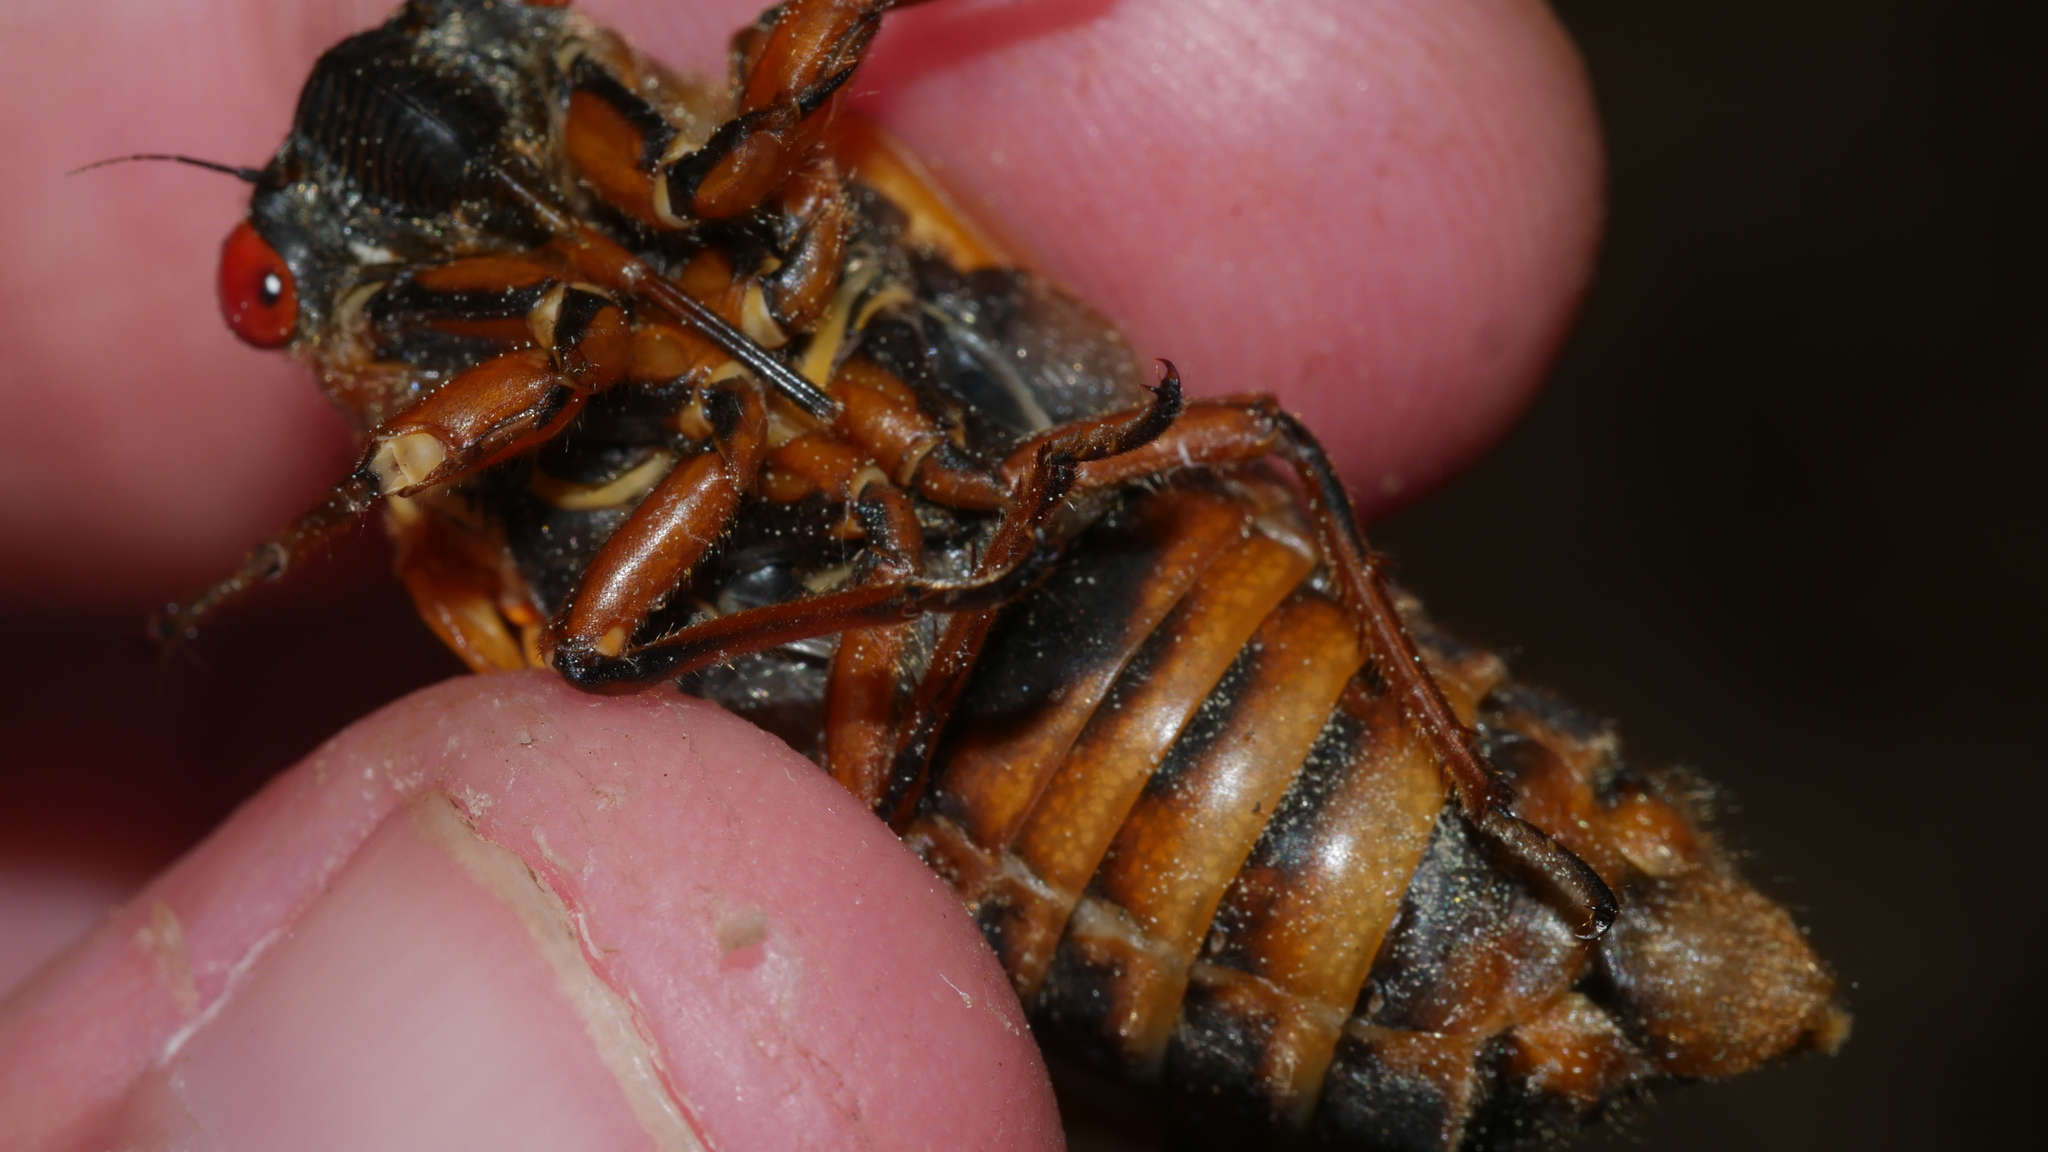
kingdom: Animalia
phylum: Arthropoda
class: Insecta
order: Hemiptera
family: Cicadidae
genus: Magicicada
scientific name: Magicicada septendecim
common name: Periodical cicada
